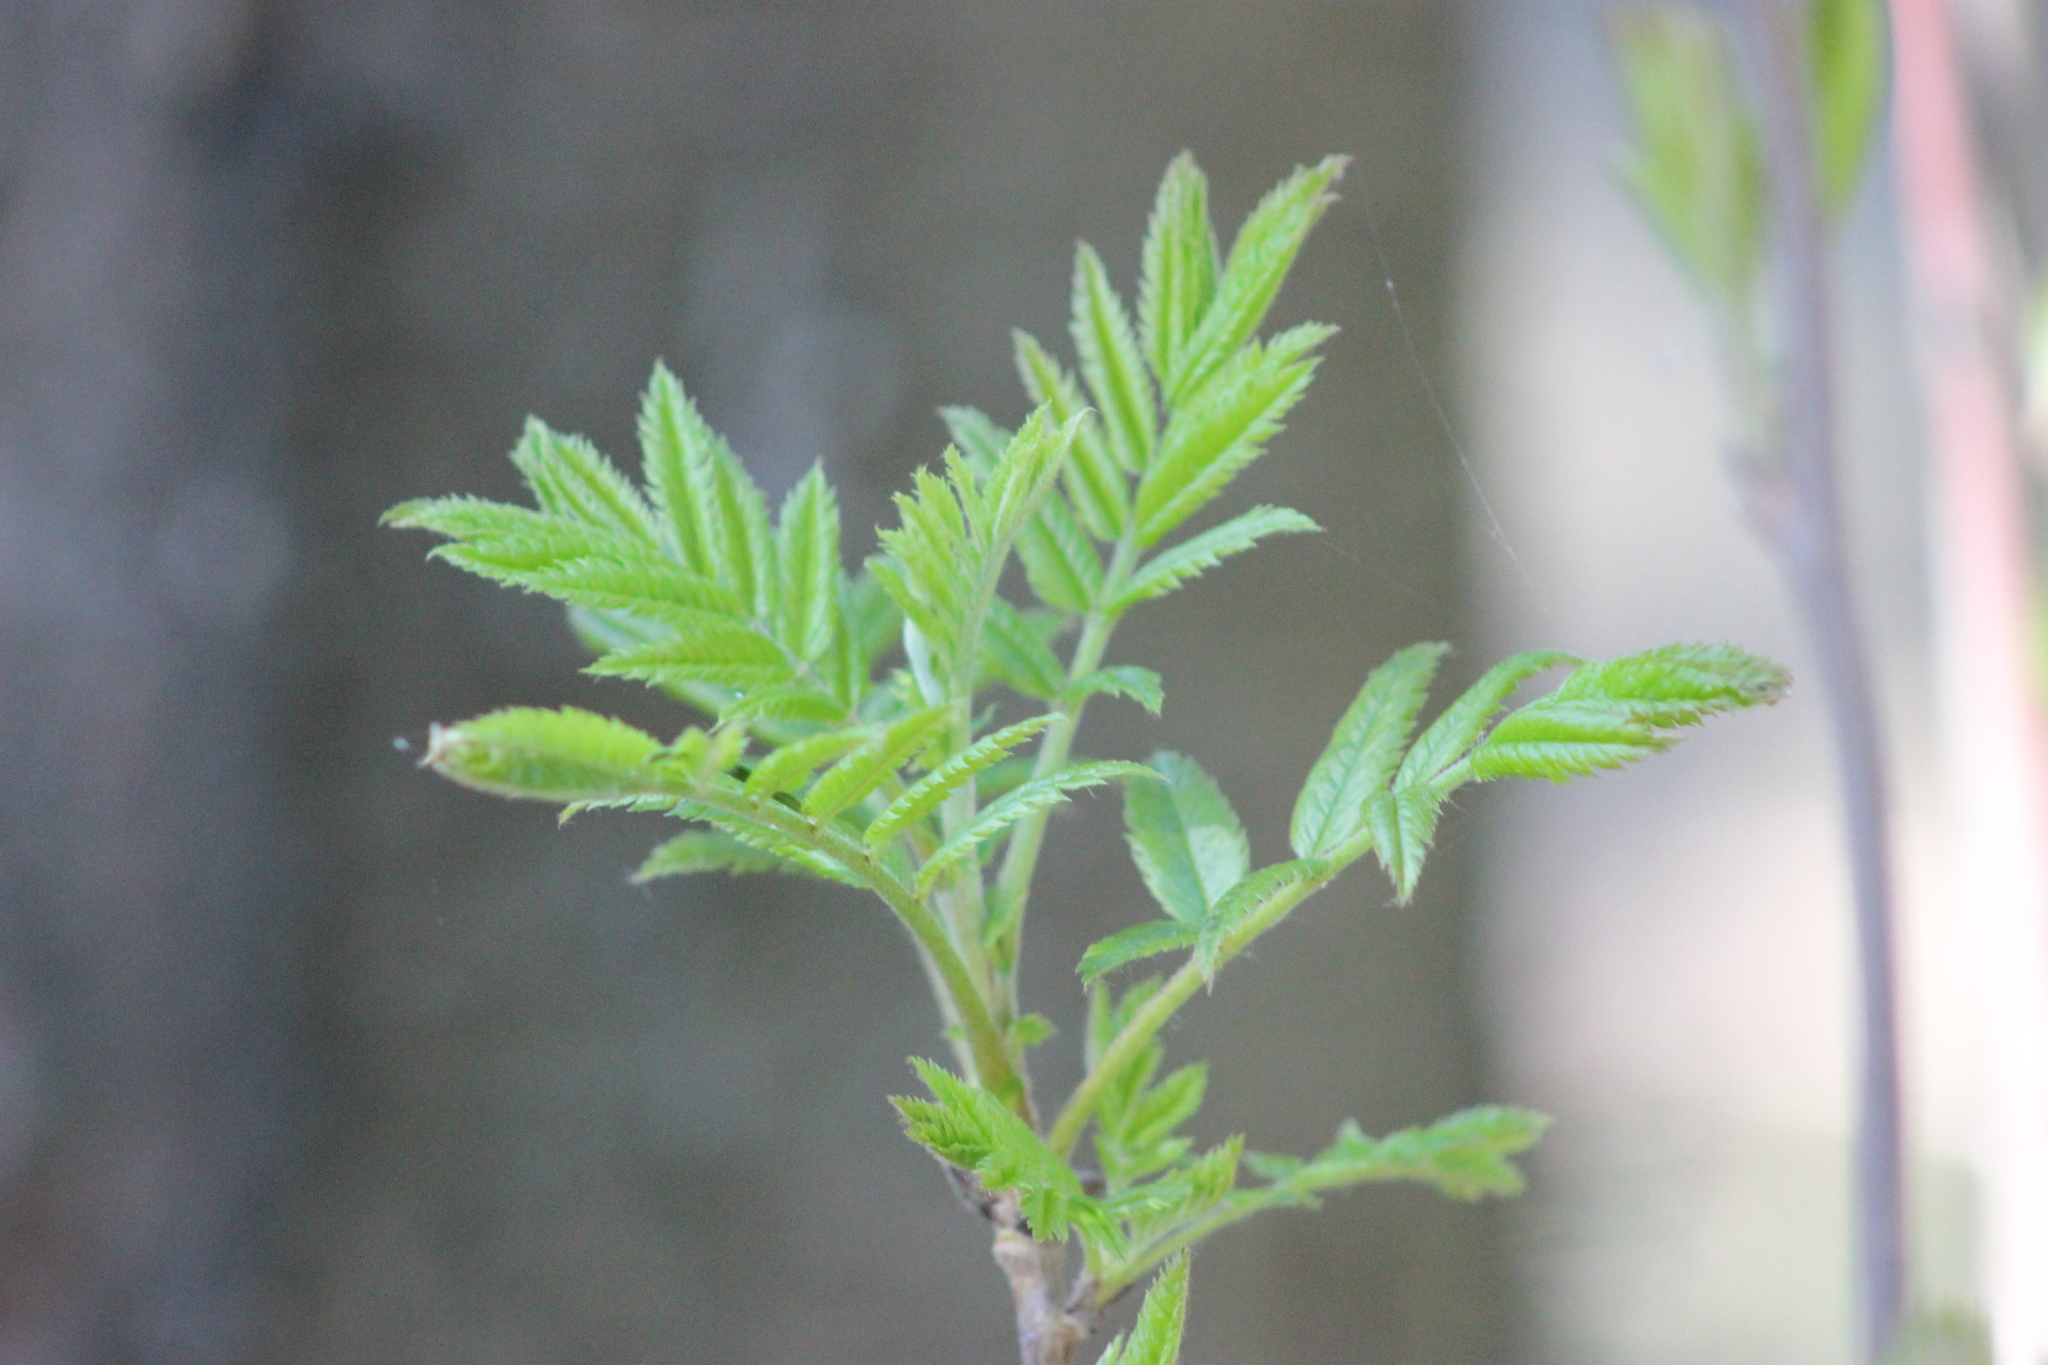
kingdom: Plantae
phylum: Tracheophyta
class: Magnoliopsida
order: Rosales
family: Rosaceae
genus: Sorbus
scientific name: Sorbus aucuparia
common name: Rowan
